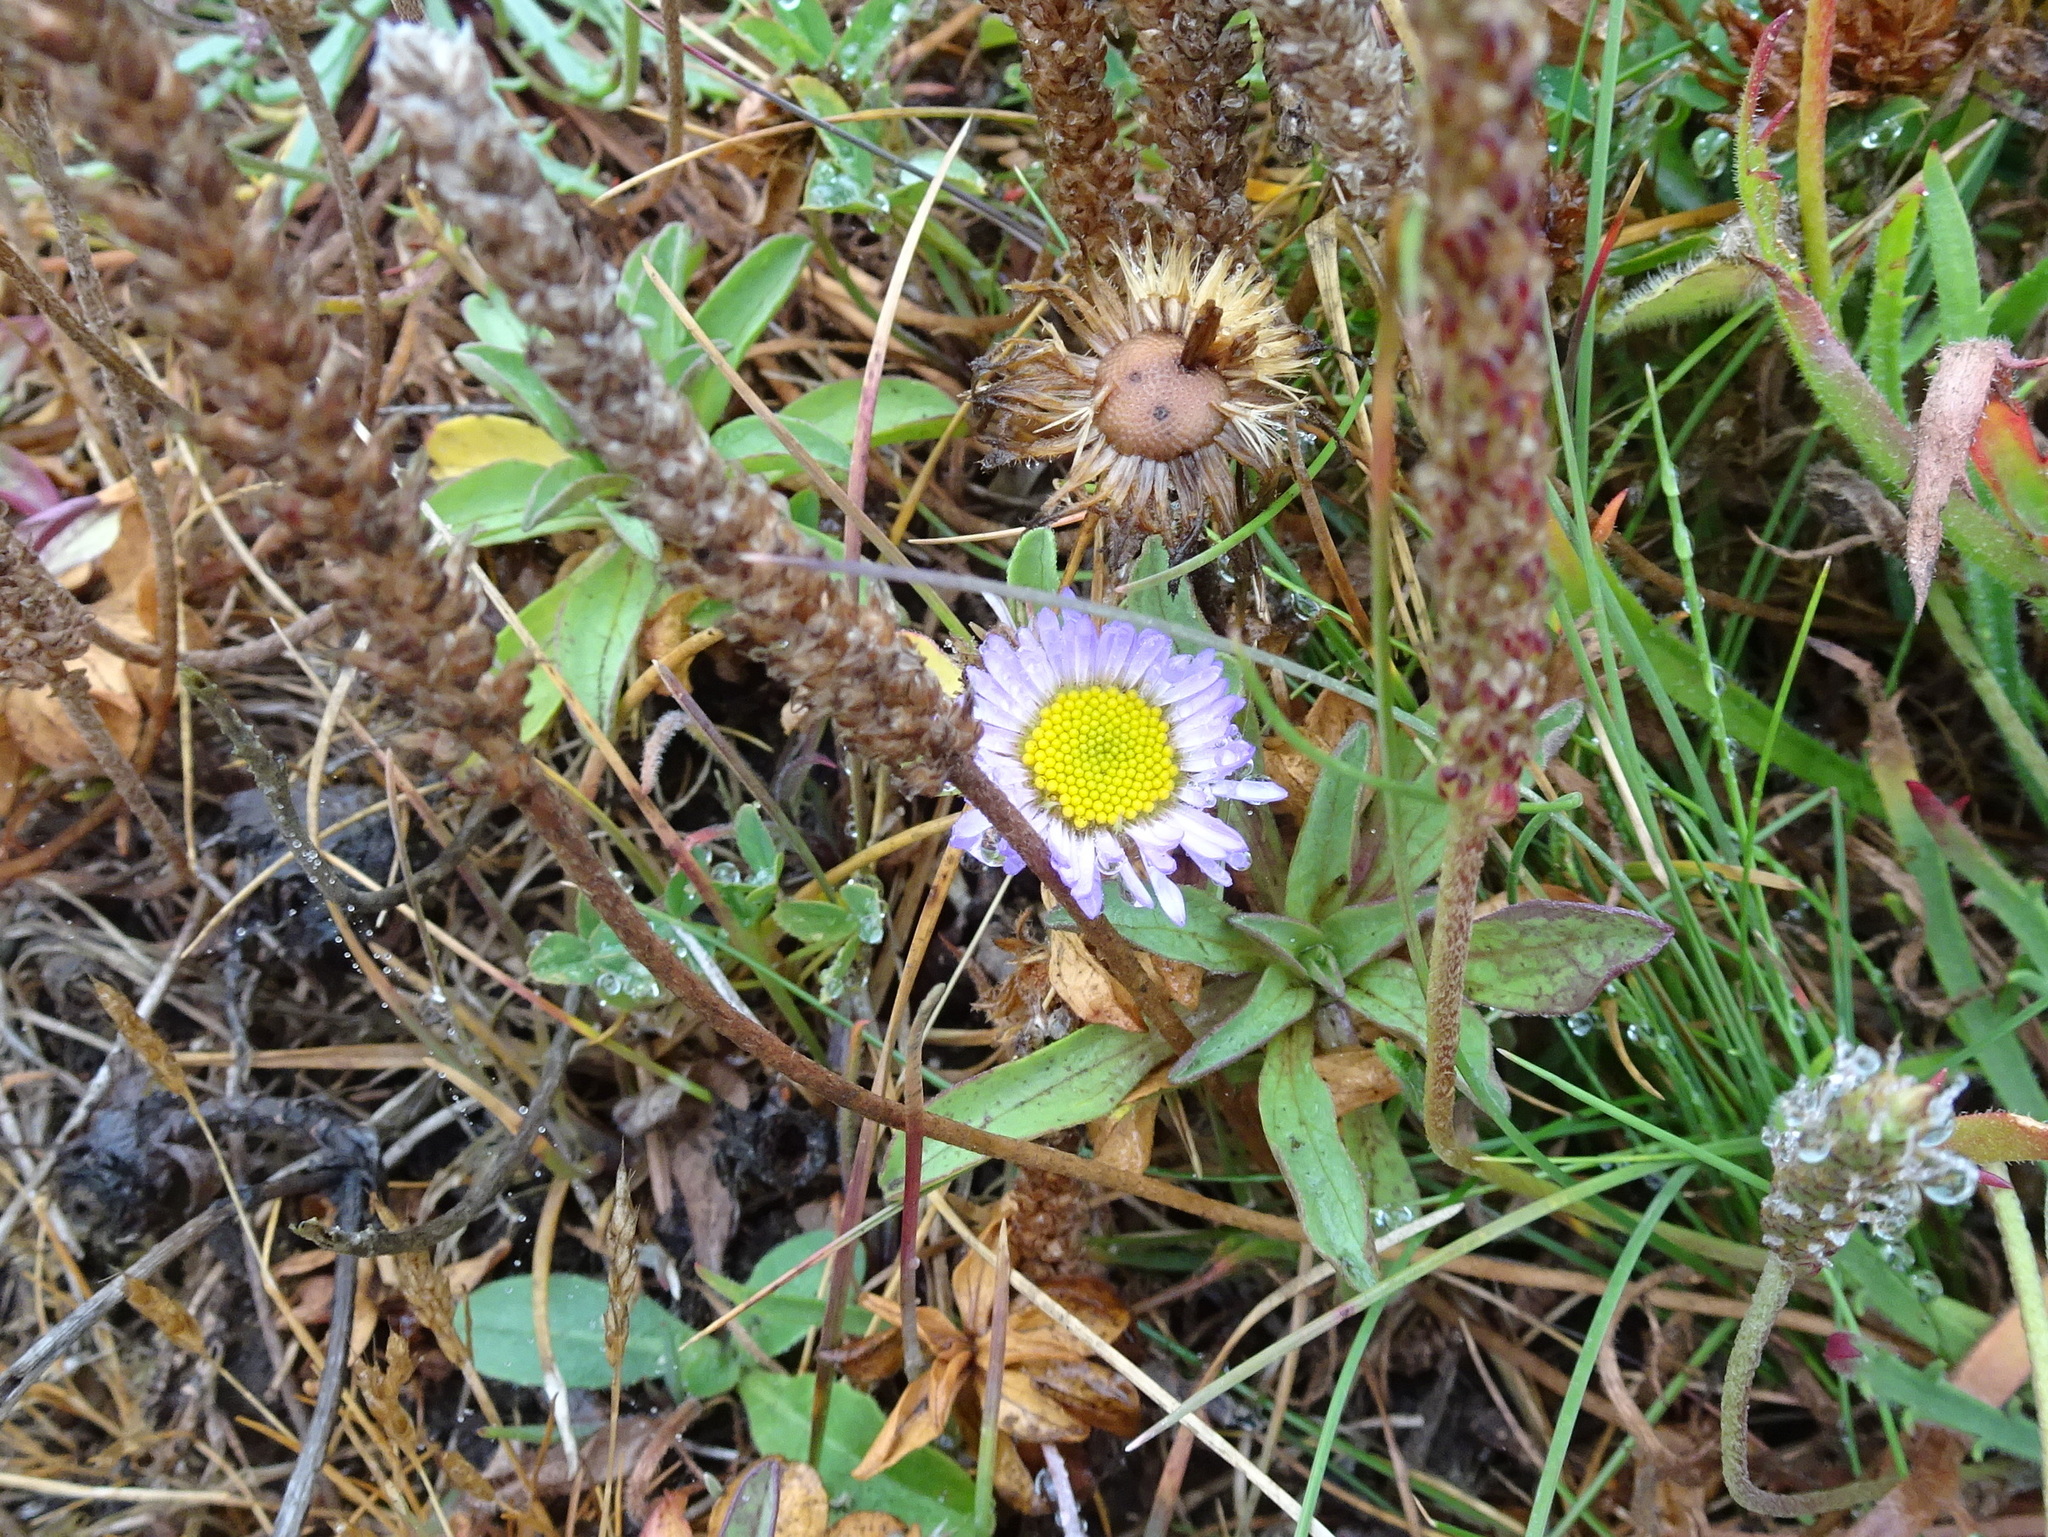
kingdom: Plantae
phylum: Tracheophyta
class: Magnoliopsida
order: Asterales
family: Asteraceae
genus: Erigeron
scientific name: Erigeron glaucus
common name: Seaside daisy
